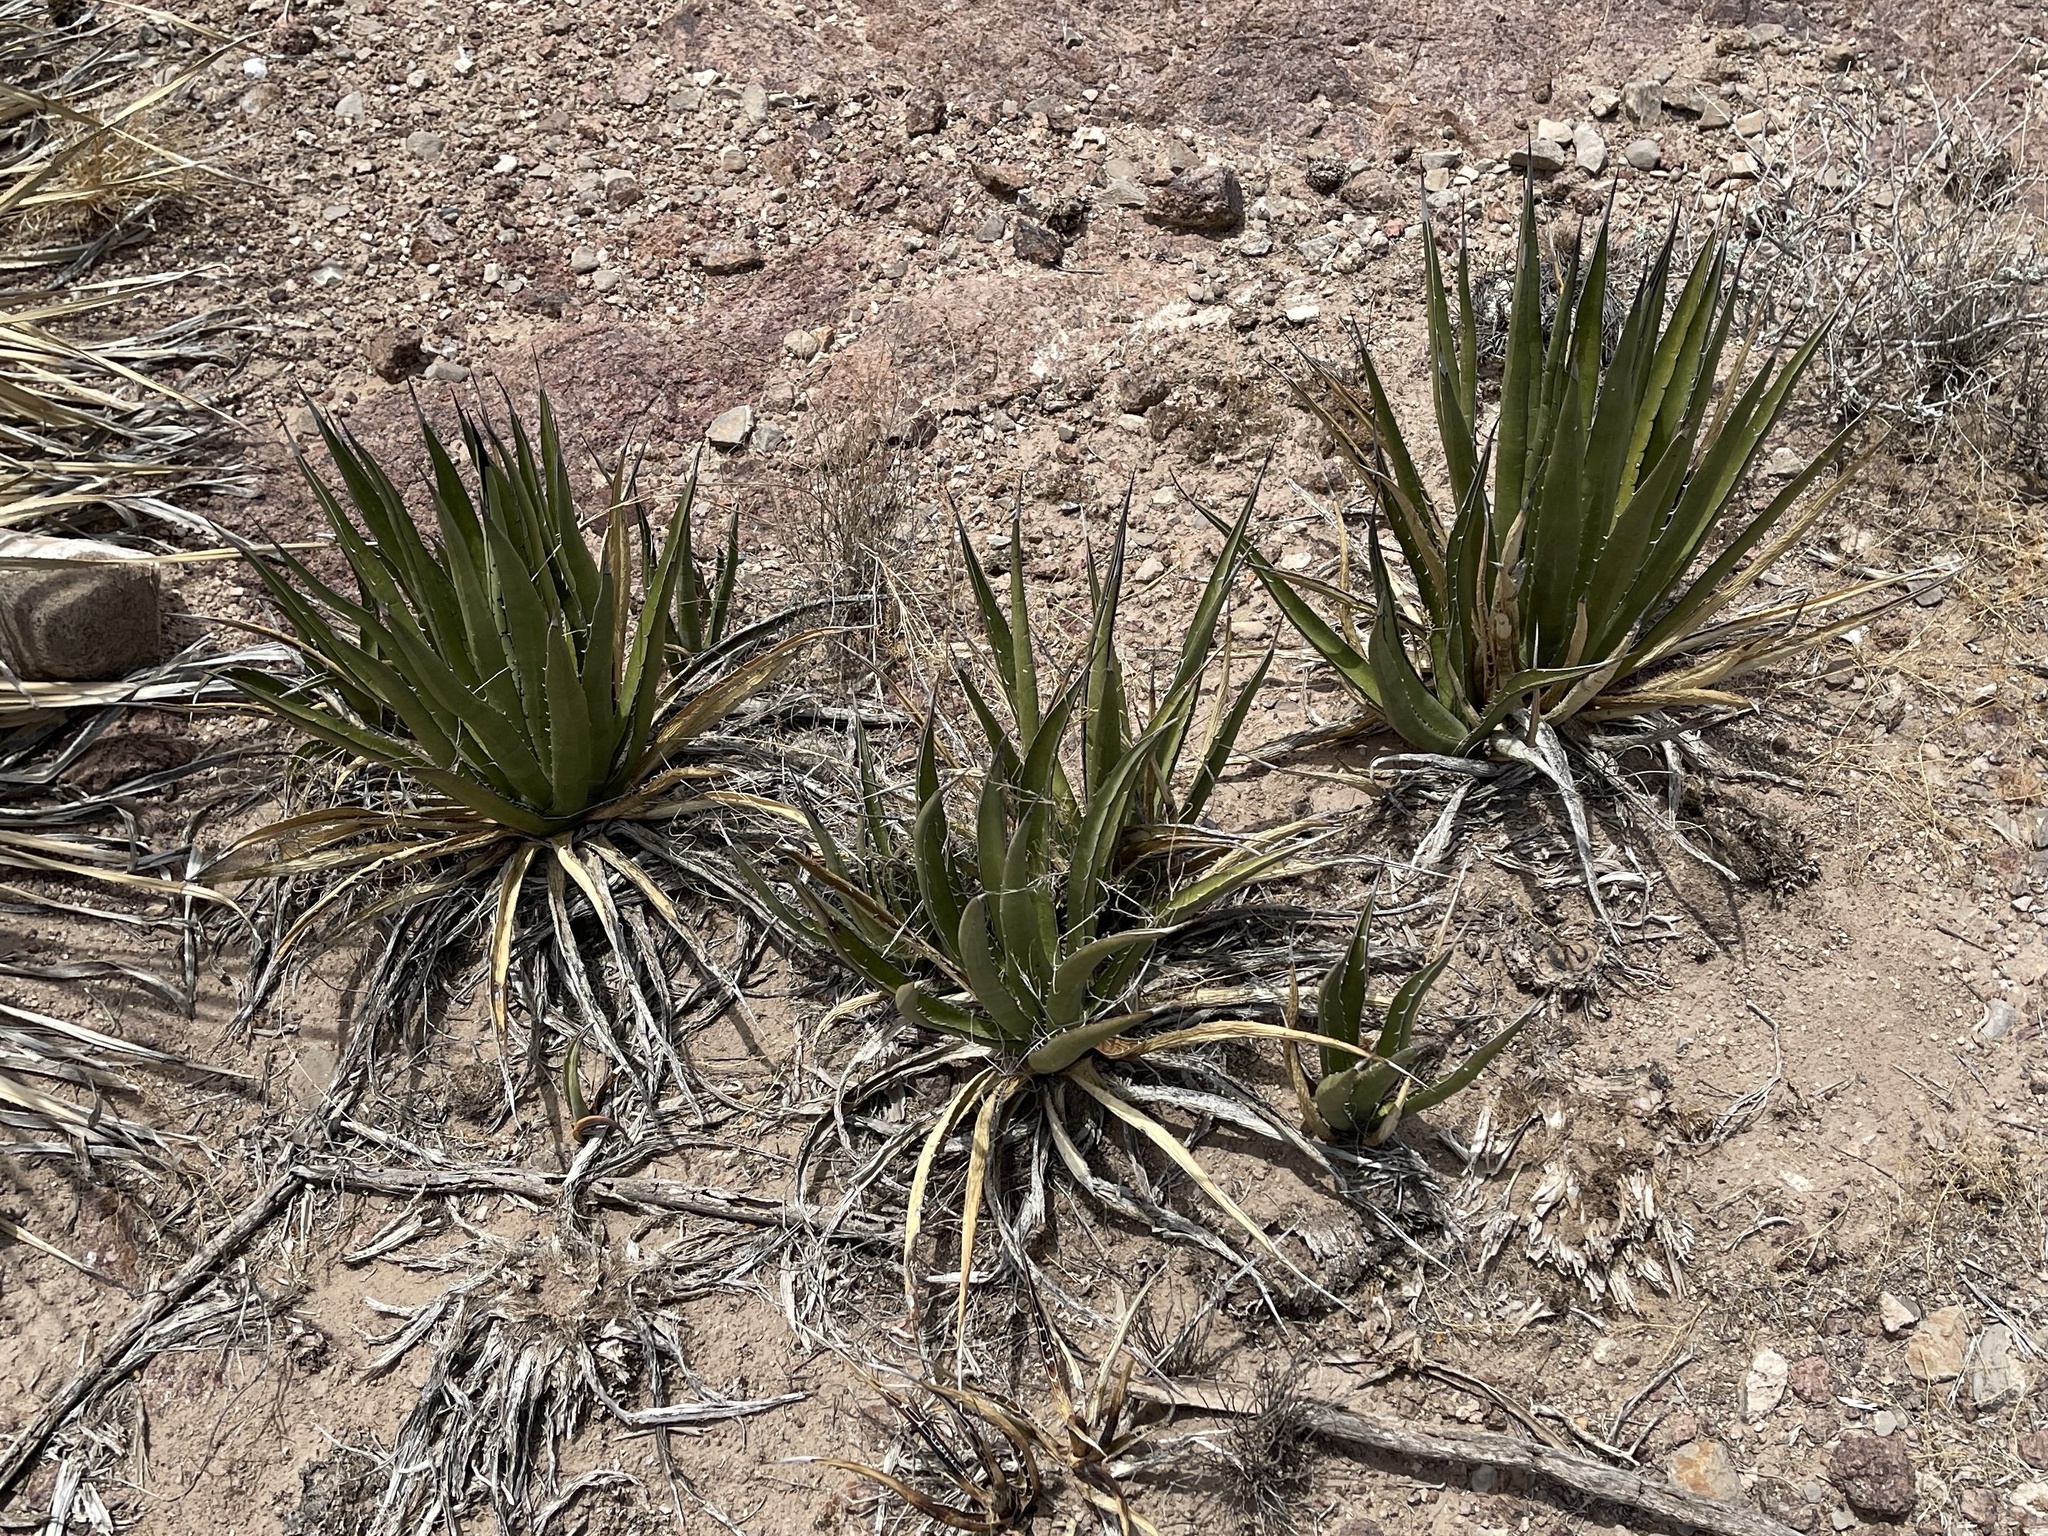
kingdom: Plantae
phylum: Tracheophyta
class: Liliopsida
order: Asparagales
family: Asparagaceae
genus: Agave
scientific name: Agave lechuguilla
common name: Lecheguilla agave
